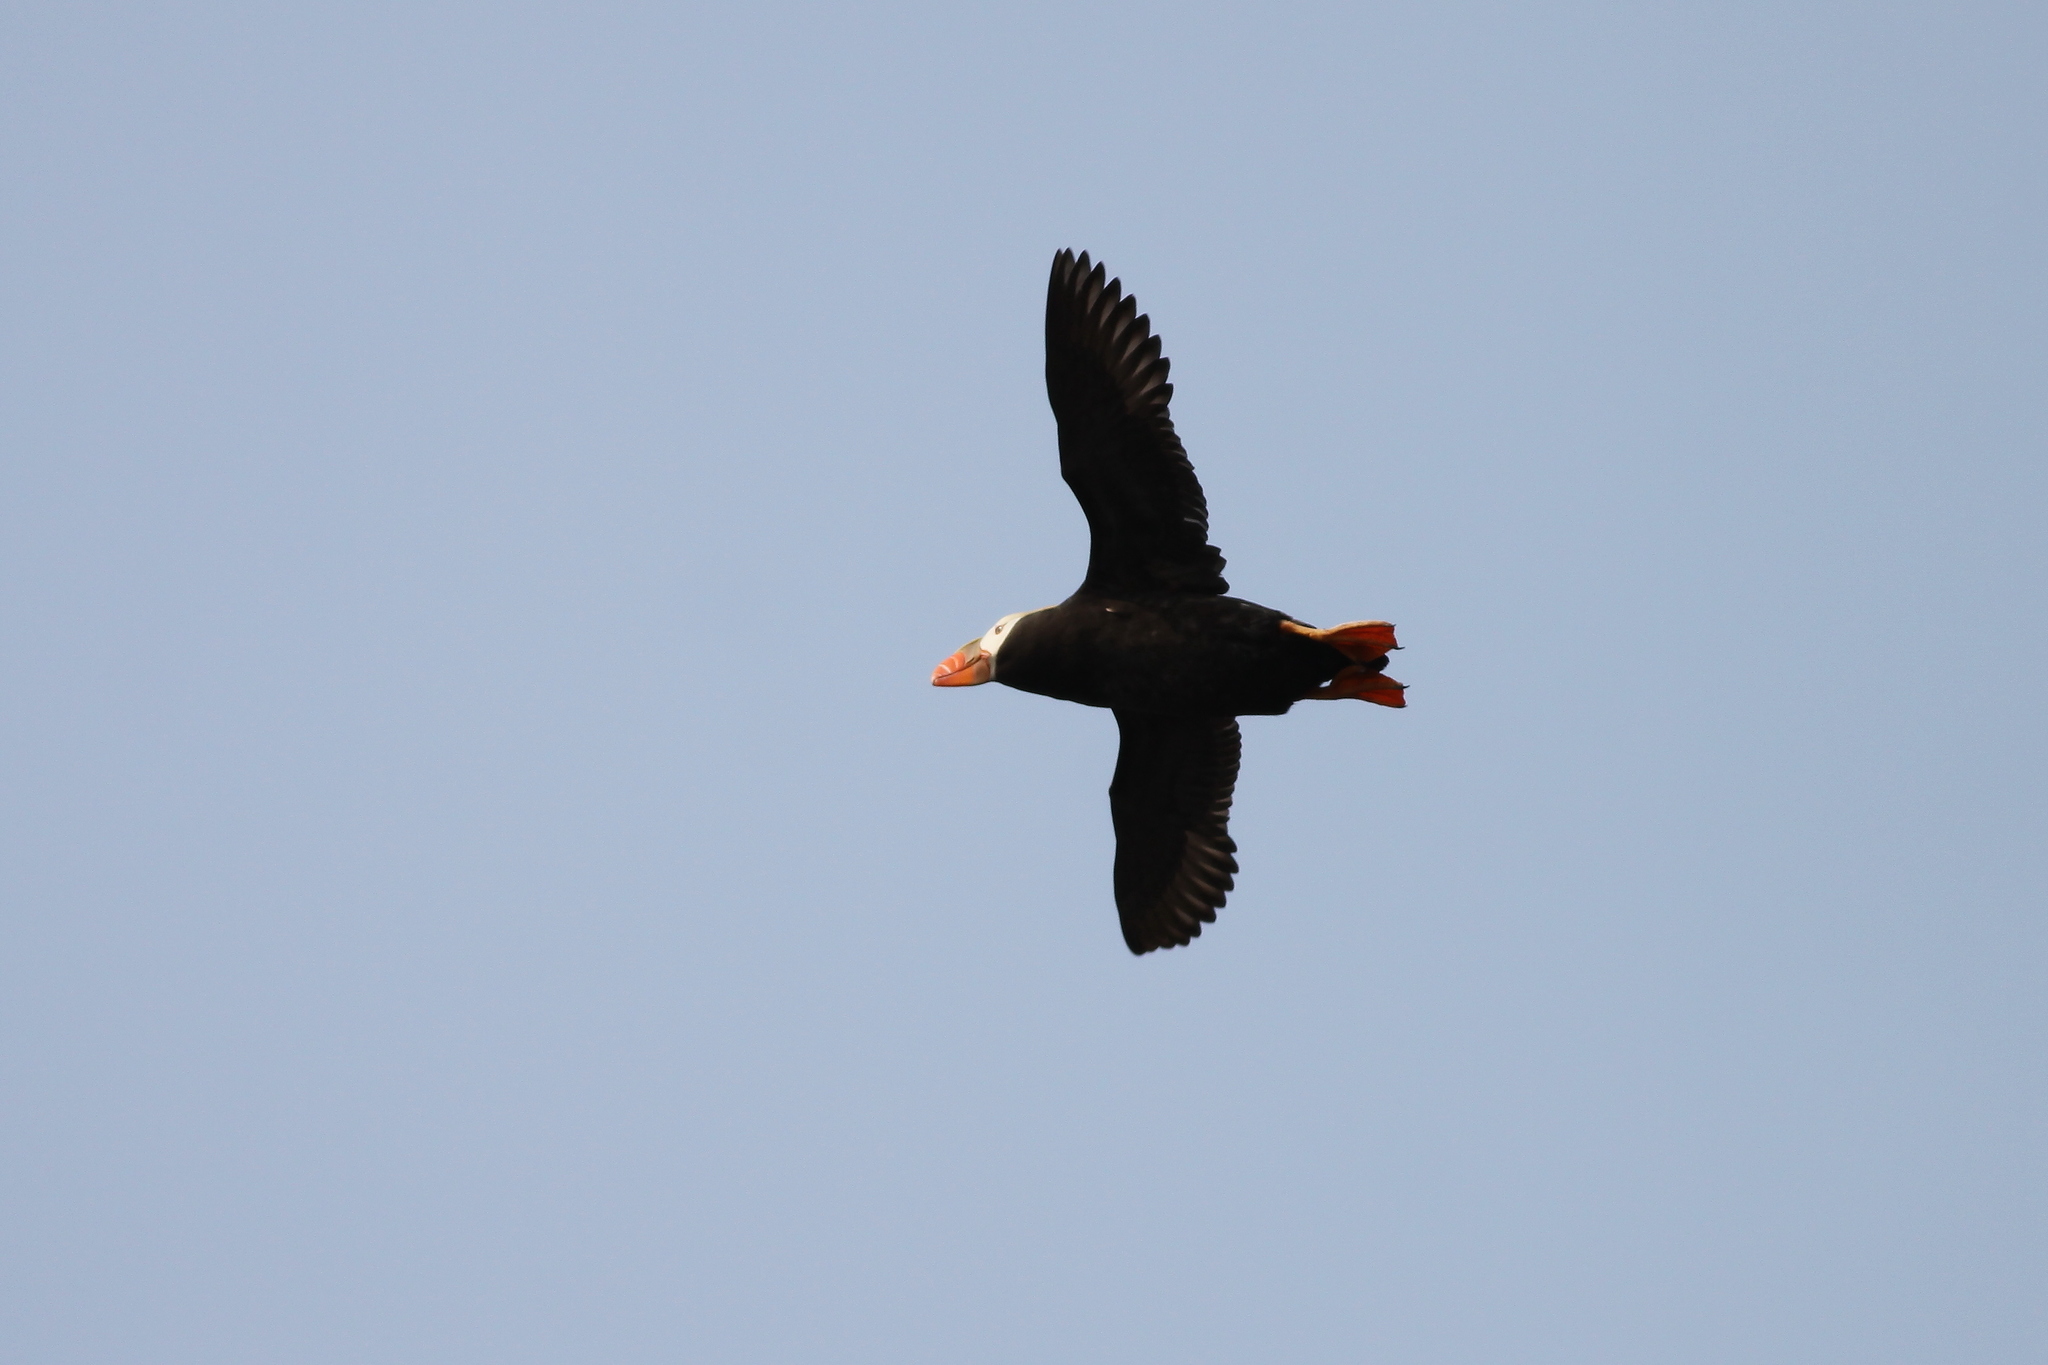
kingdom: Animalia
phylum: Chordata
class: Aves
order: Charadriiformes
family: Alcidae
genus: Fratercula
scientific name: Fratercula cirrhata
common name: Tufted puffin
